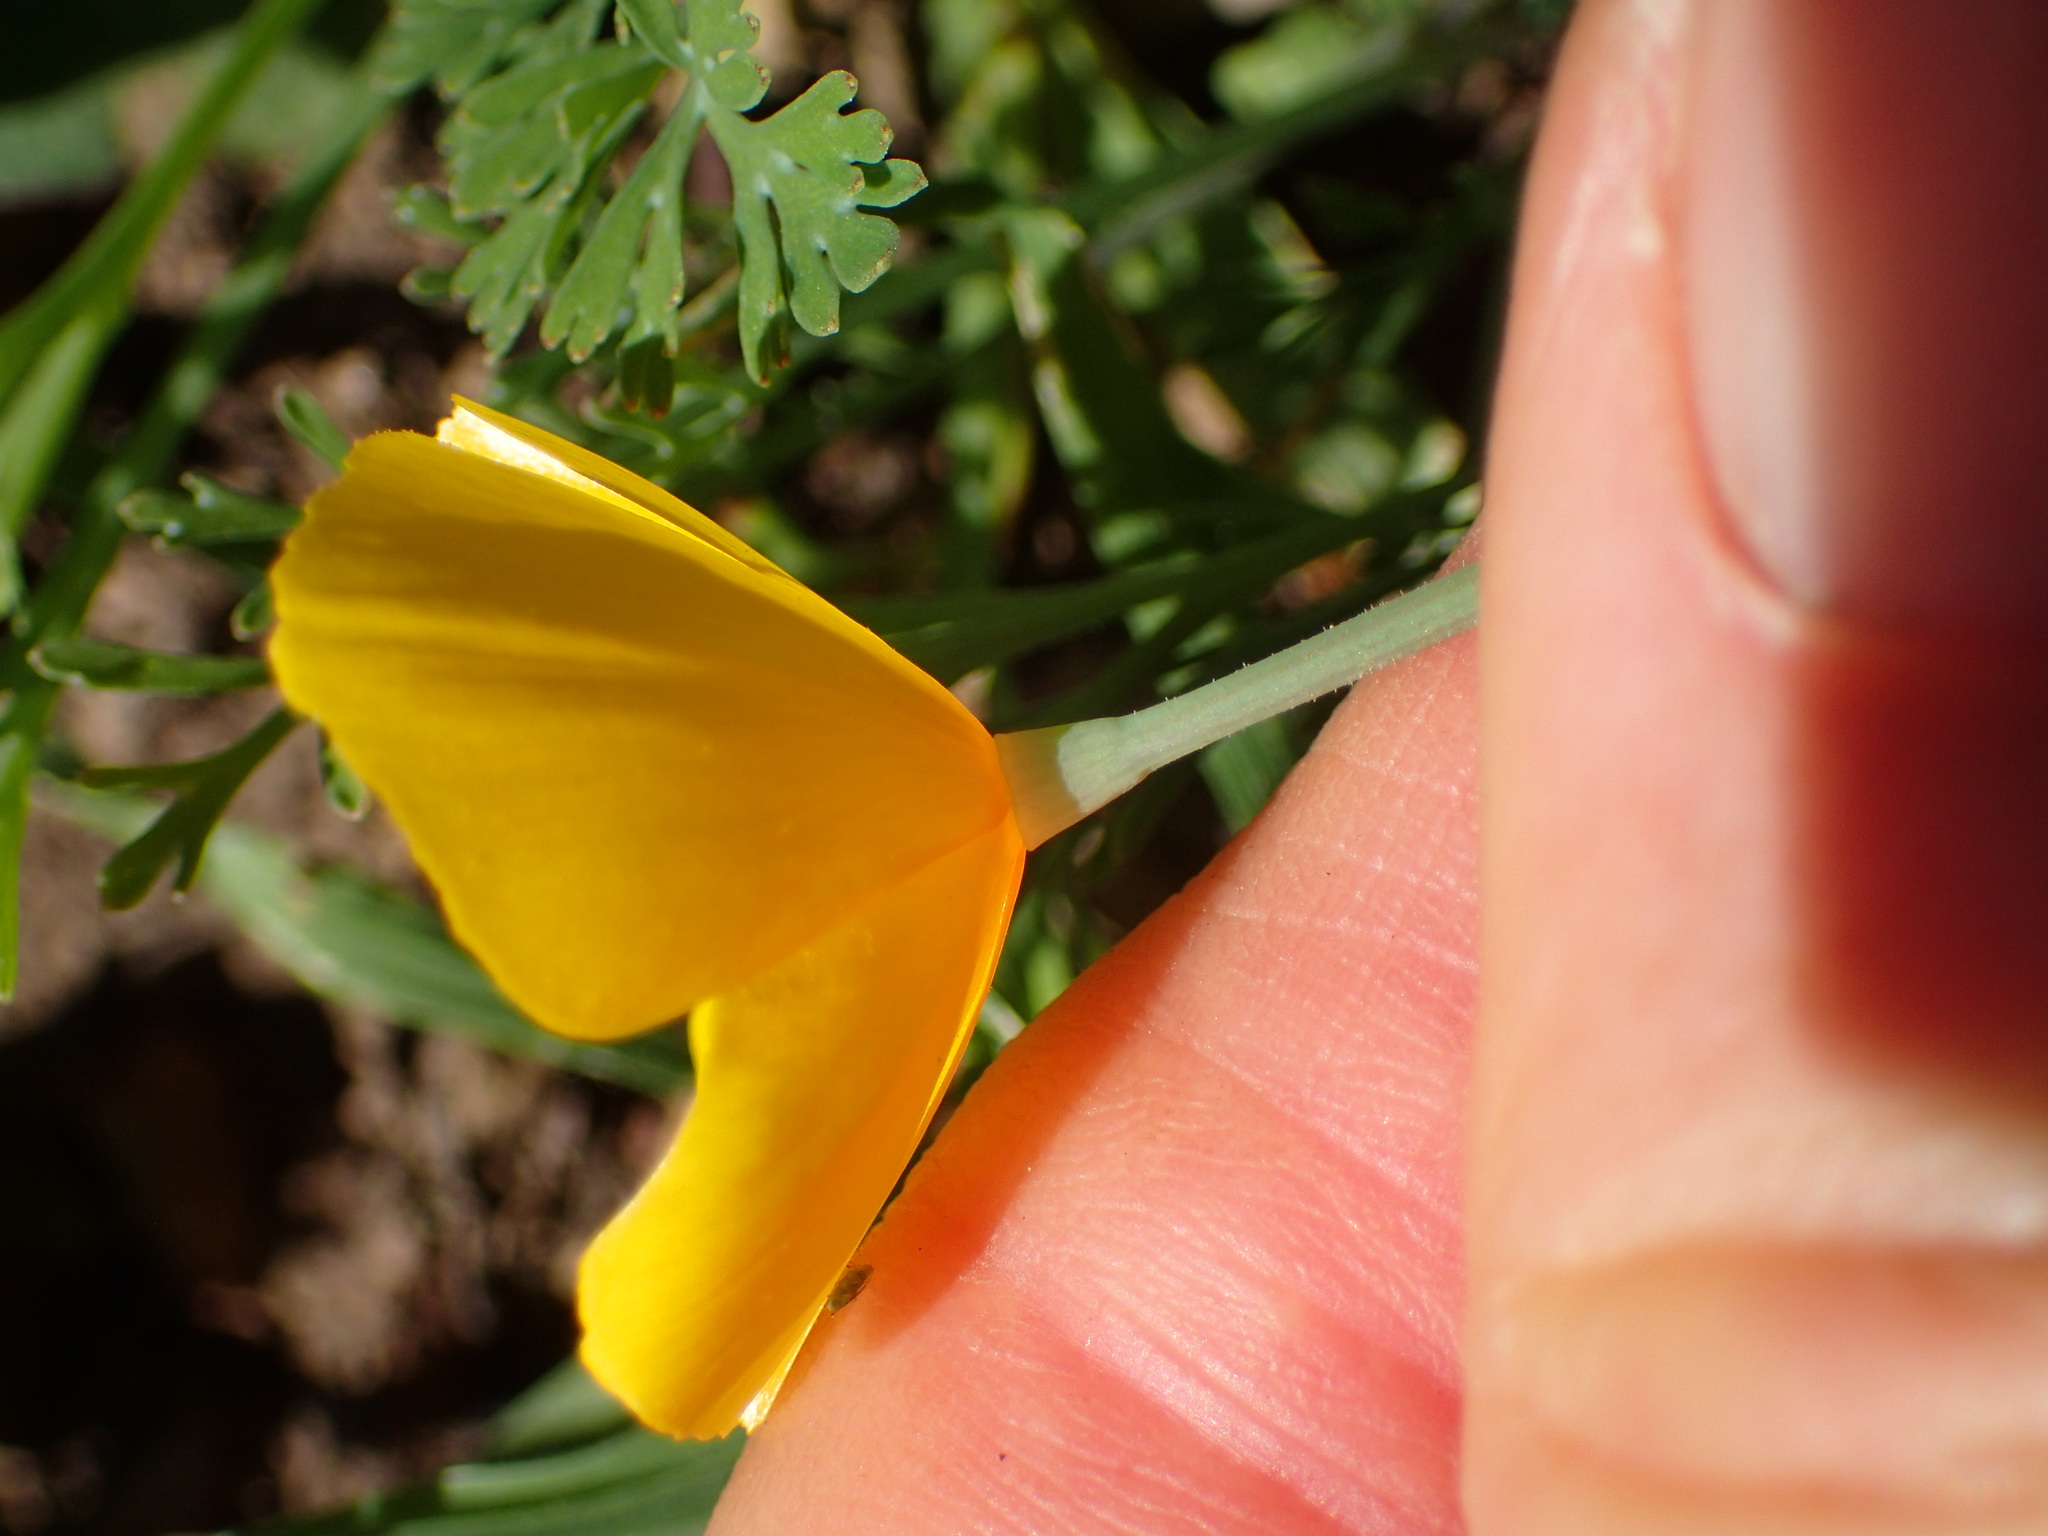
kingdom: Plantae
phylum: Tracheophyta
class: Magnoliopsida
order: Ranunculales
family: Papaveraceae
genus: Eschscholzia
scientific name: Eschscholzia caespitosa
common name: Tufted california-poppy
